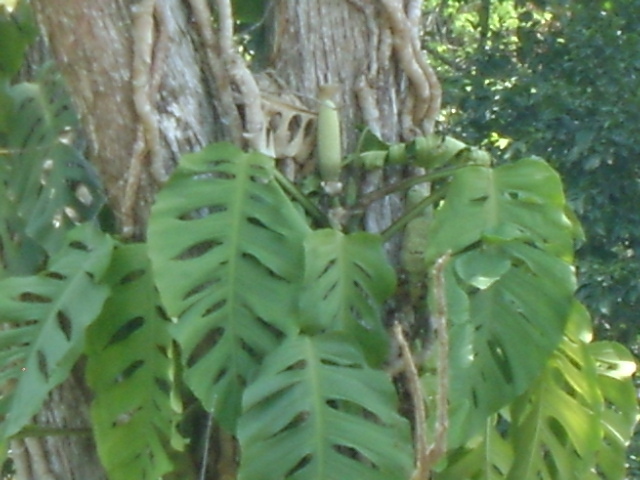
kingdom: Plantae
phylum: Tracheophyta
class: Liliopsida
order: Alismatales
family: Araceae
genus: Monstera
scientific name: Monstera acuminata
